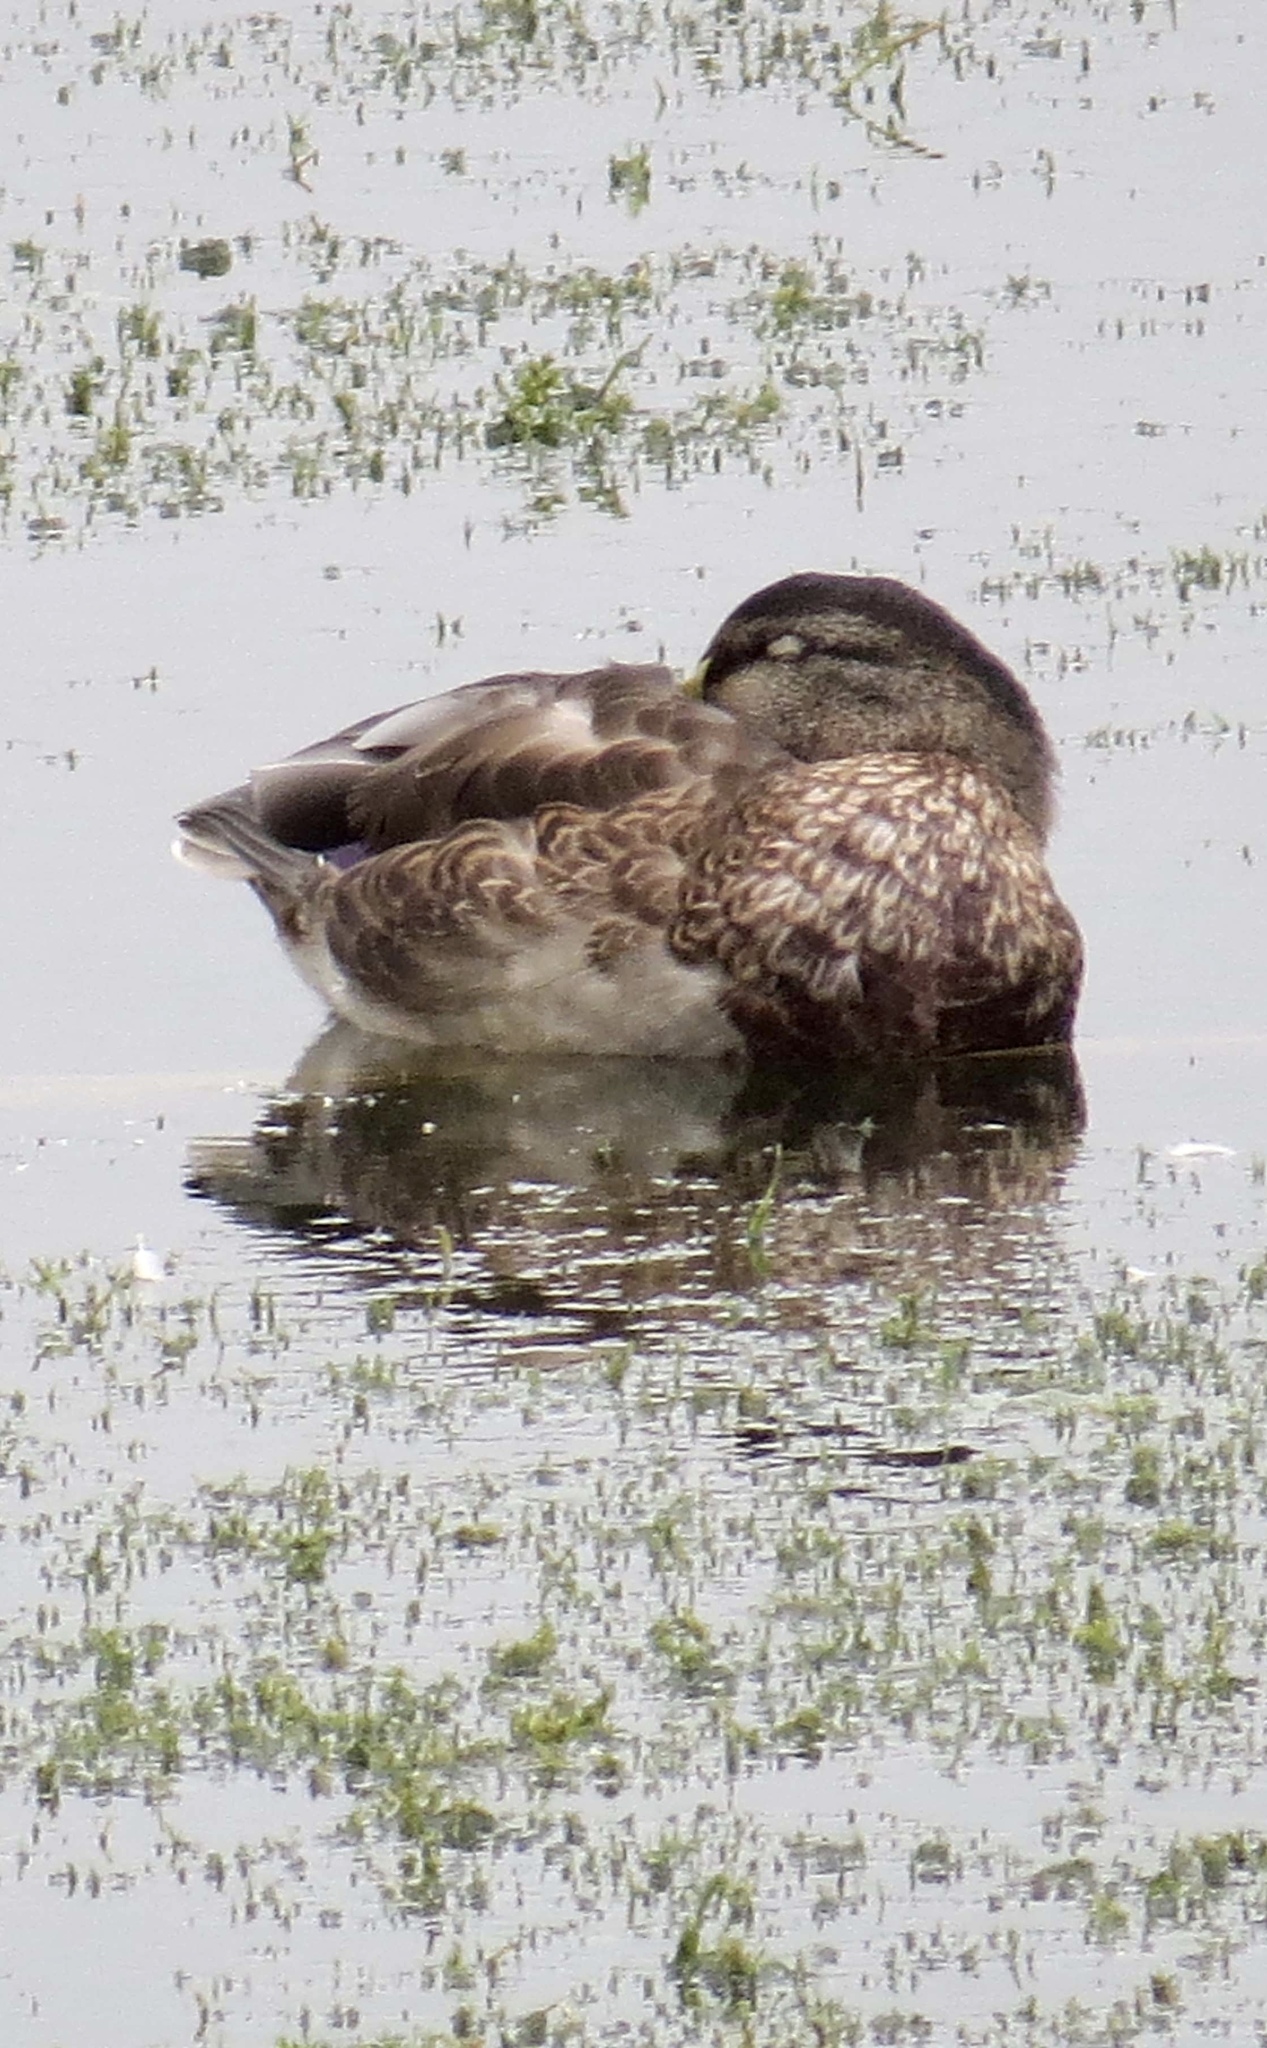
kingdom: Animalia
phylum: Chordata
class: Aves
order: Anseriformes
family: Anatidae
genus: Anas
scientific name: Anas platyrhynchos
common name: Mallard
